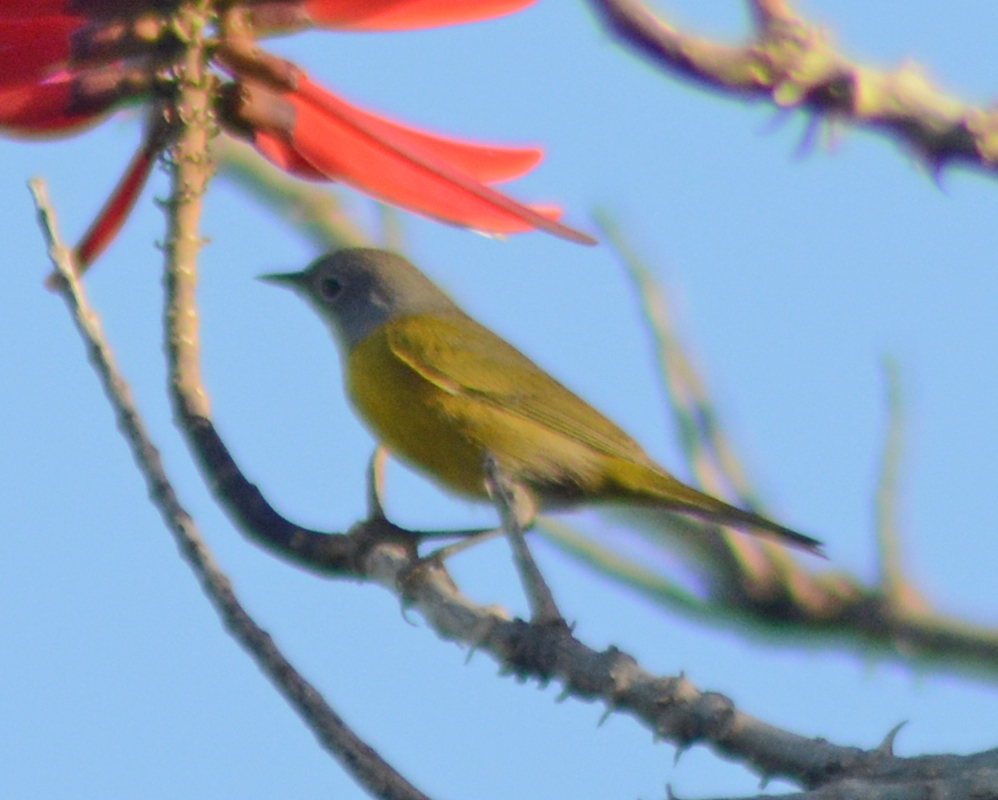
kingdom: Animalia
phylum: Chordata
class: Aves
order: Passeriformes
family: Parulidae
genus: Leiothlypis
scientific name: Leiothlypis ruficapilla
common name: Nashville warbler
